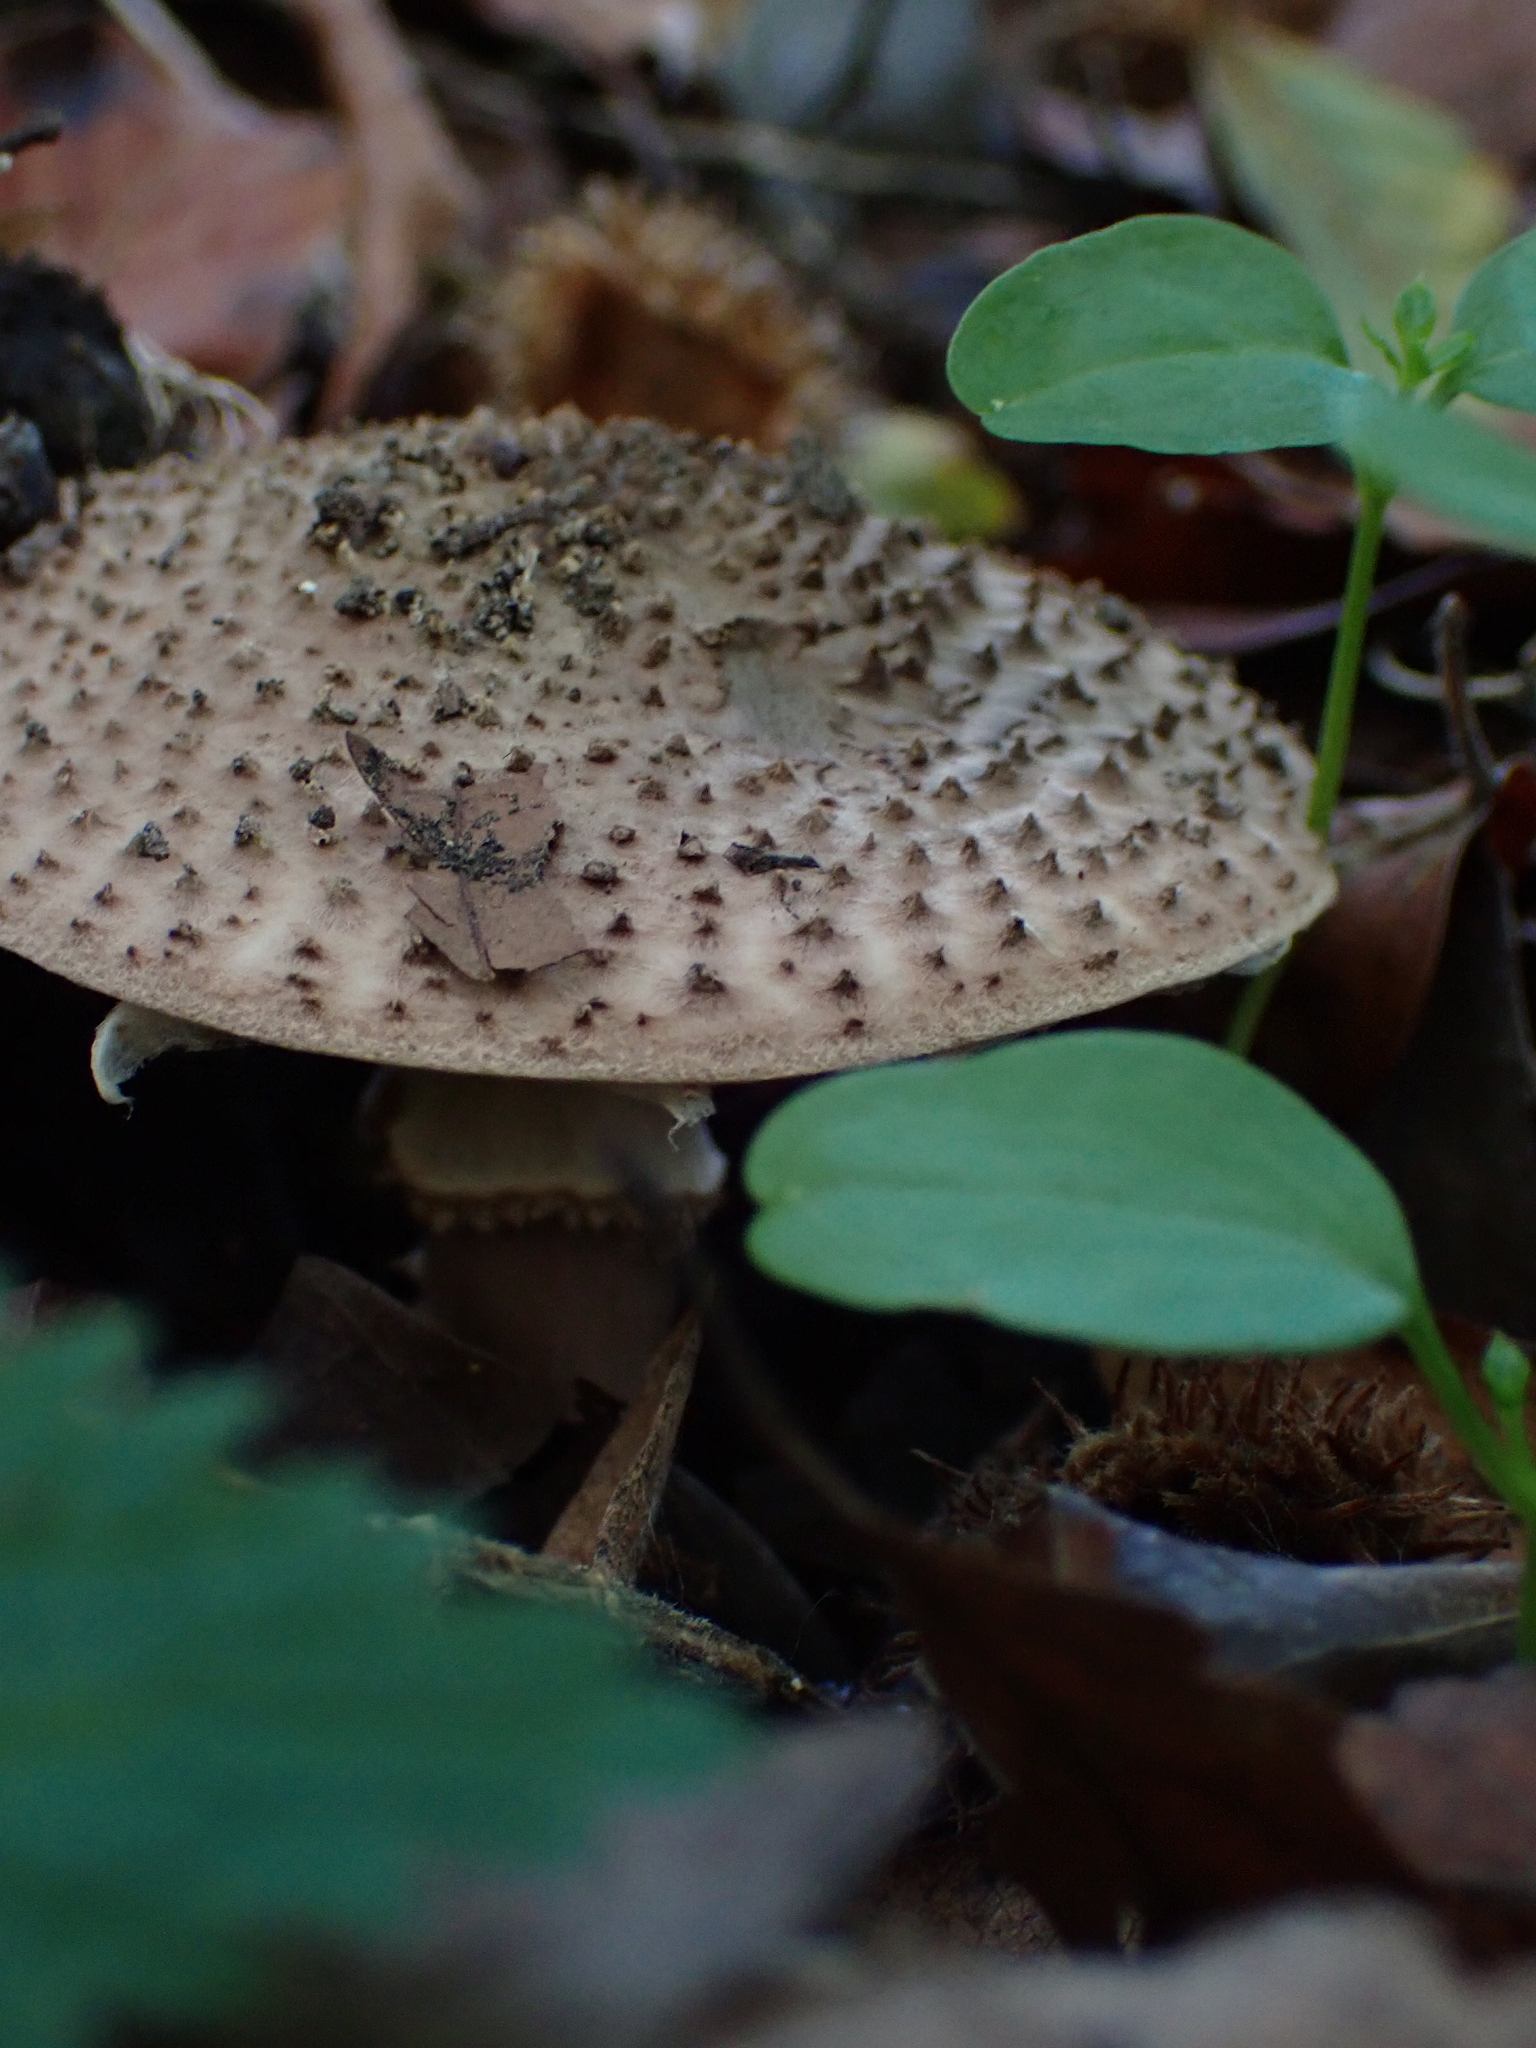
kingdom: Fungi
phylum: Basidiomycota
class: Agaricomycetes
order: Agaricales
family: Agaricaceae
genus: Echinoderma
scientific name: Echinoderma asperum
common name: Freckled dapperling
